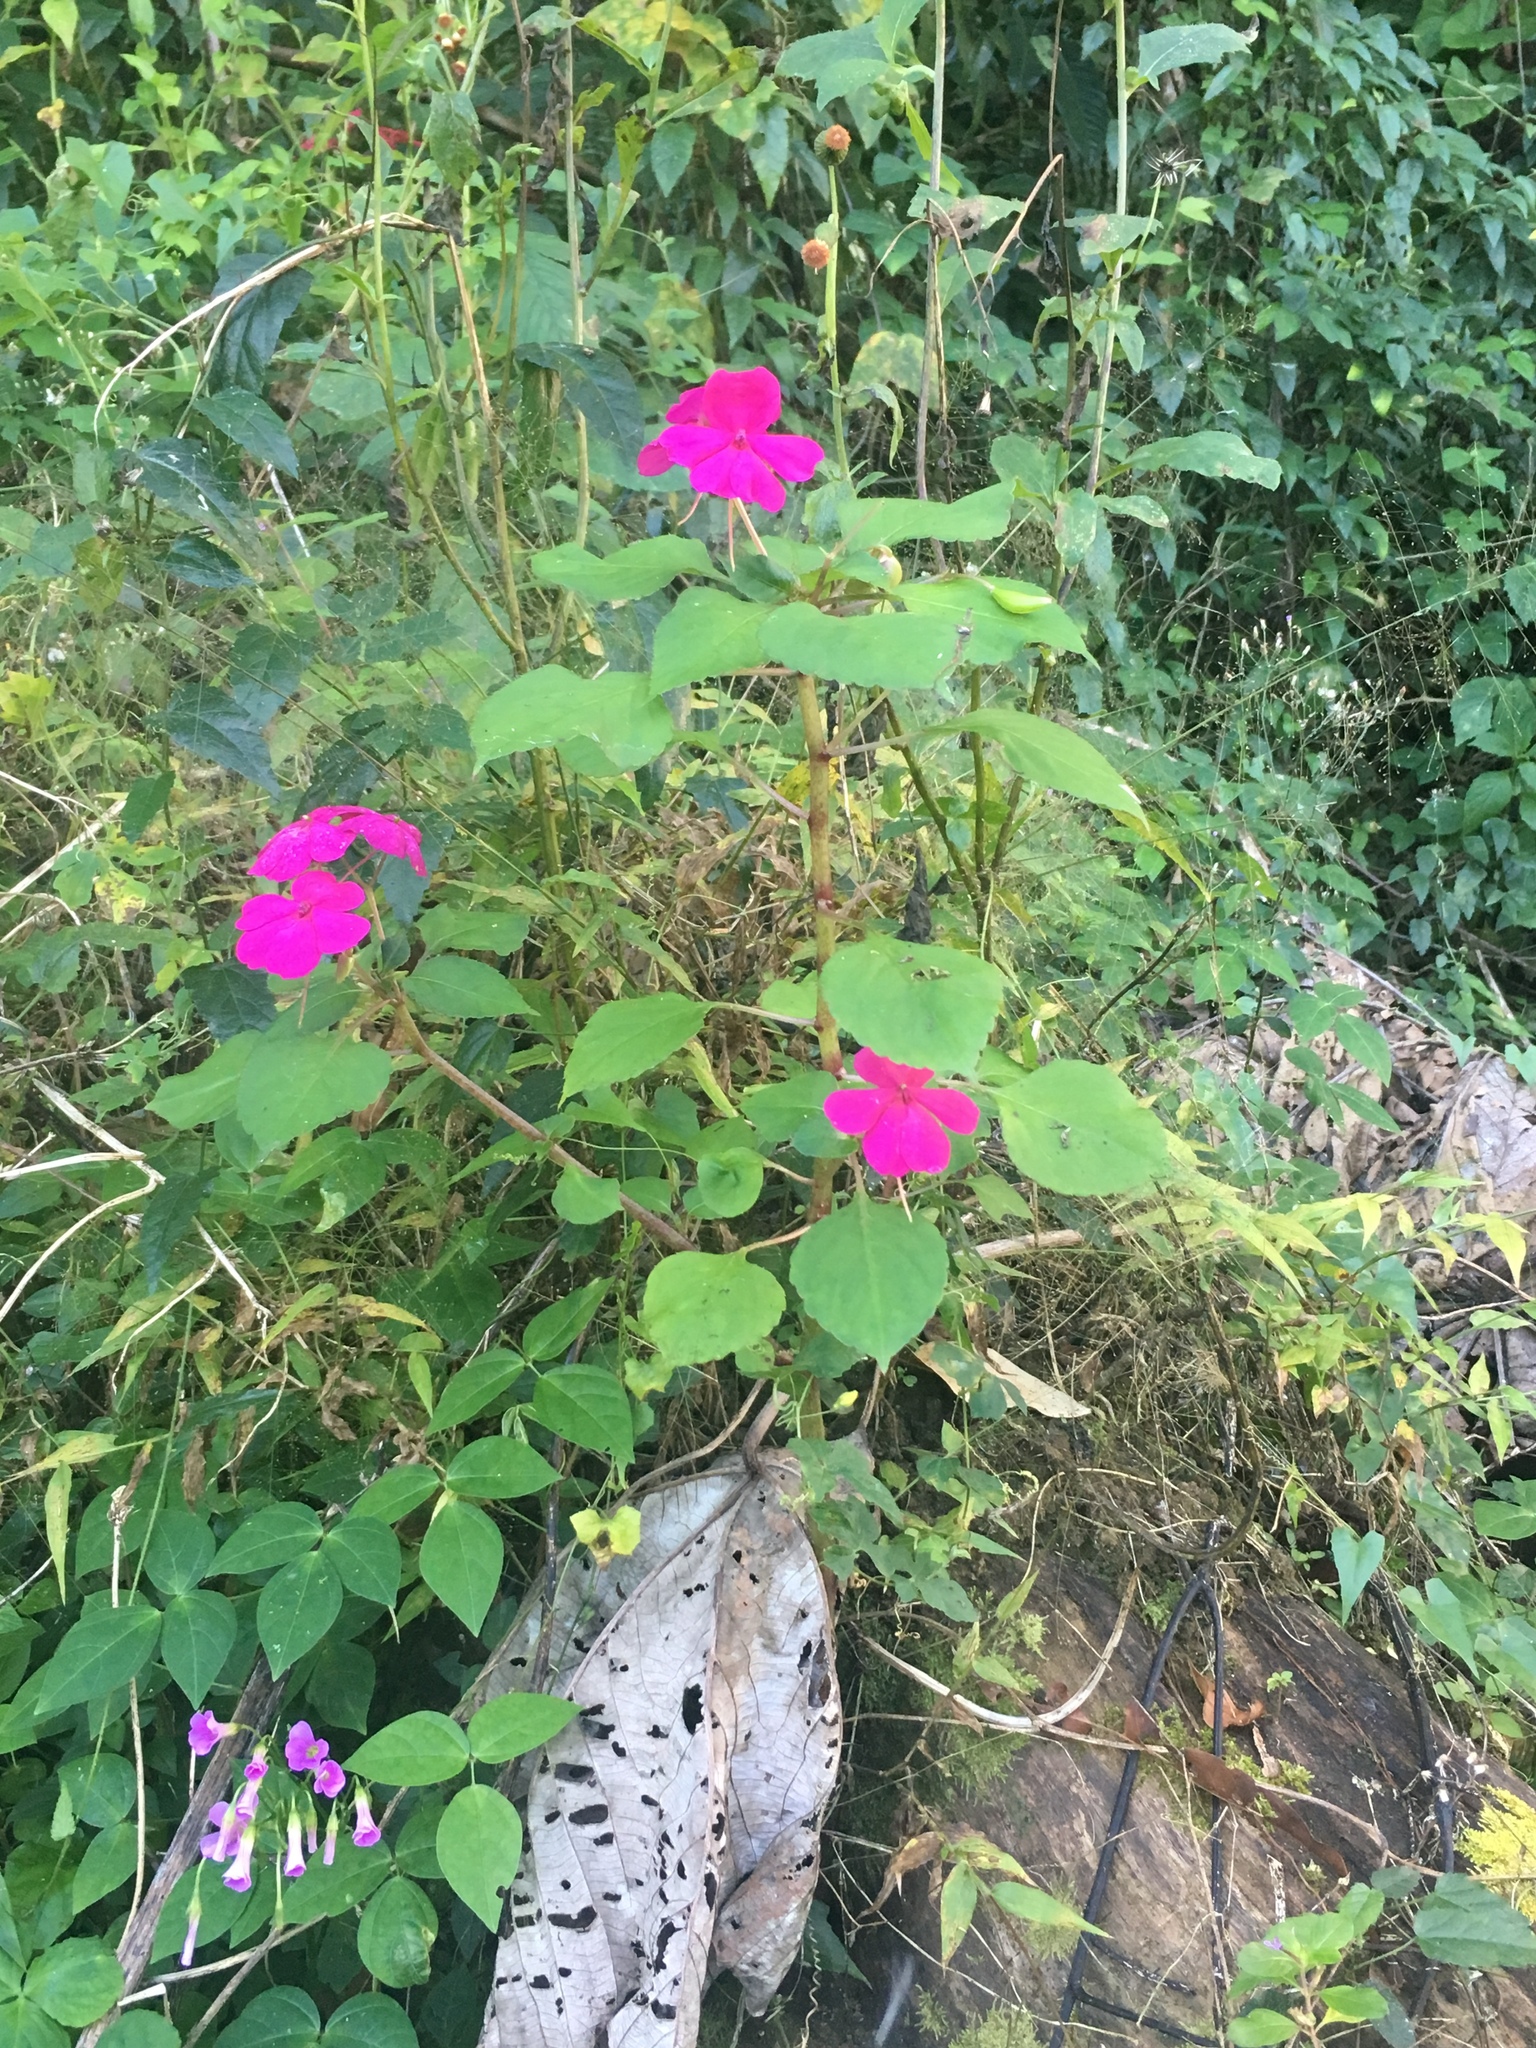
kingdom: Plantae
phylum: Tracheophyta
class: Magnoliopsida
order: Ericales
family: Balsaminaceae
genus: Impatiens
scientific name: Impatiens walleriana
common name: Buzzy lizzy
